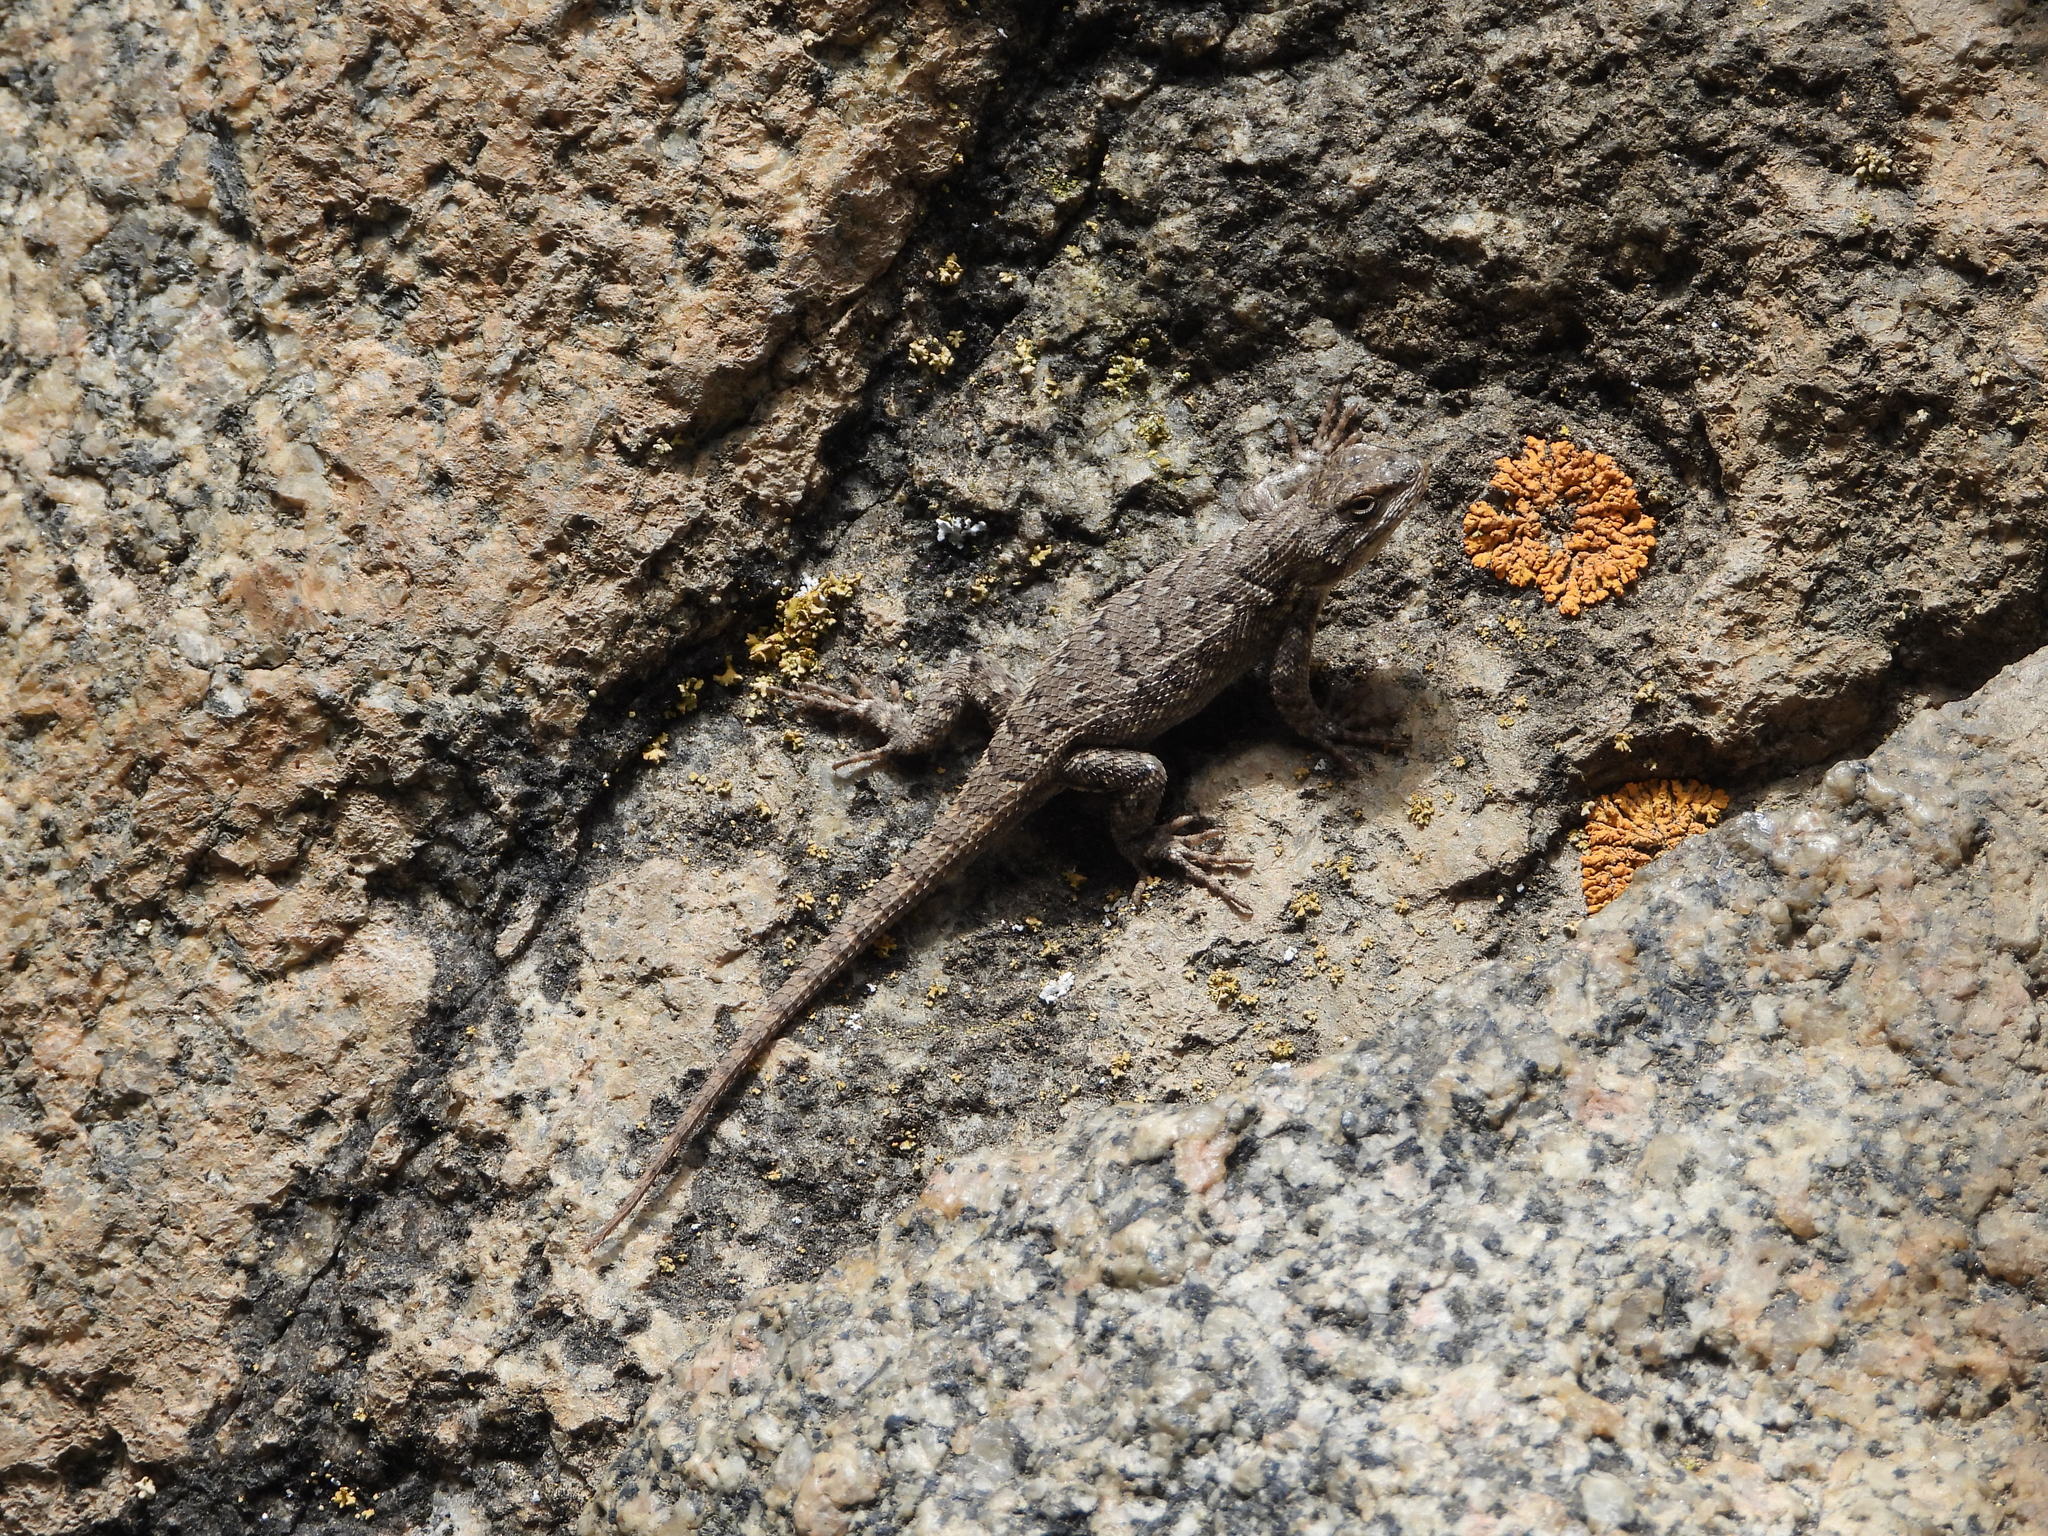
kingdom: Animalia
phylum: Chordata
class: Squamata
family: Phrynosomatidae
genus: Sceloporus
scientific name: Sceloporus consobrinus
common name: Southern prairie lizard
